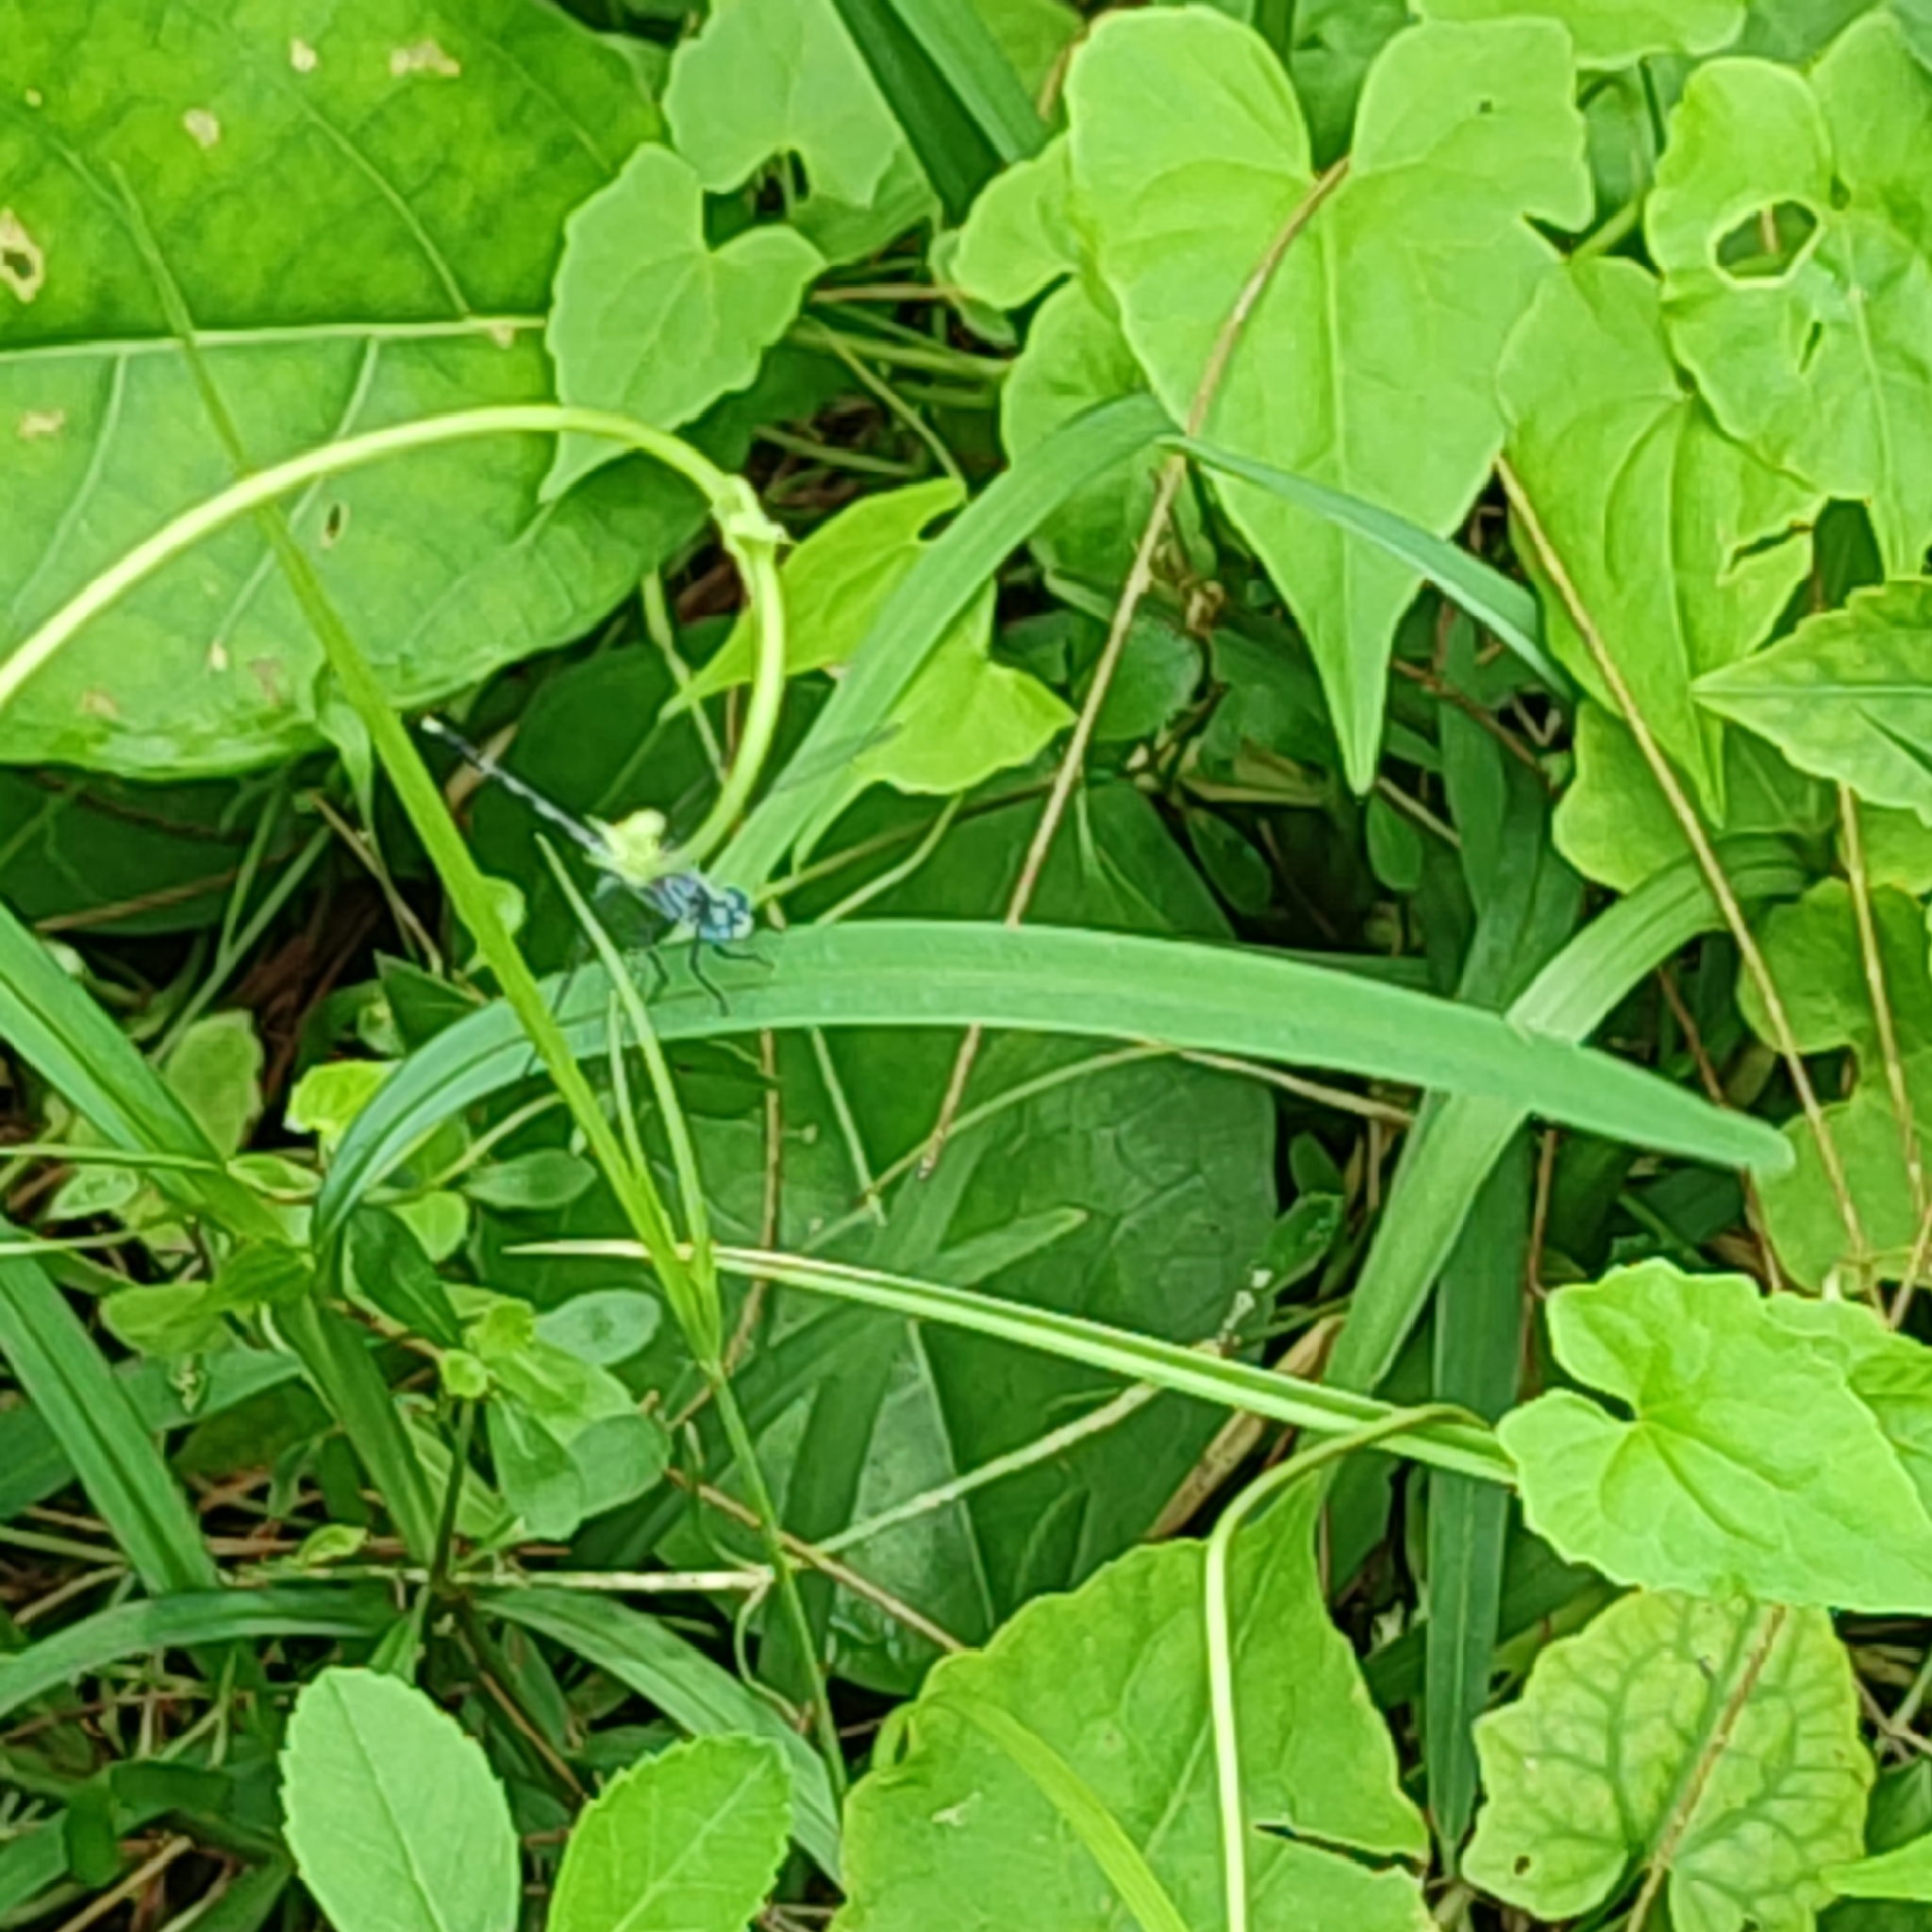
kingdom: Animalia
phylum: Arthropoda
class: Insecta
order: Odonata
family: Libellulidae
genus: Diplacodes
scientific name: Diplacodes trivialis
